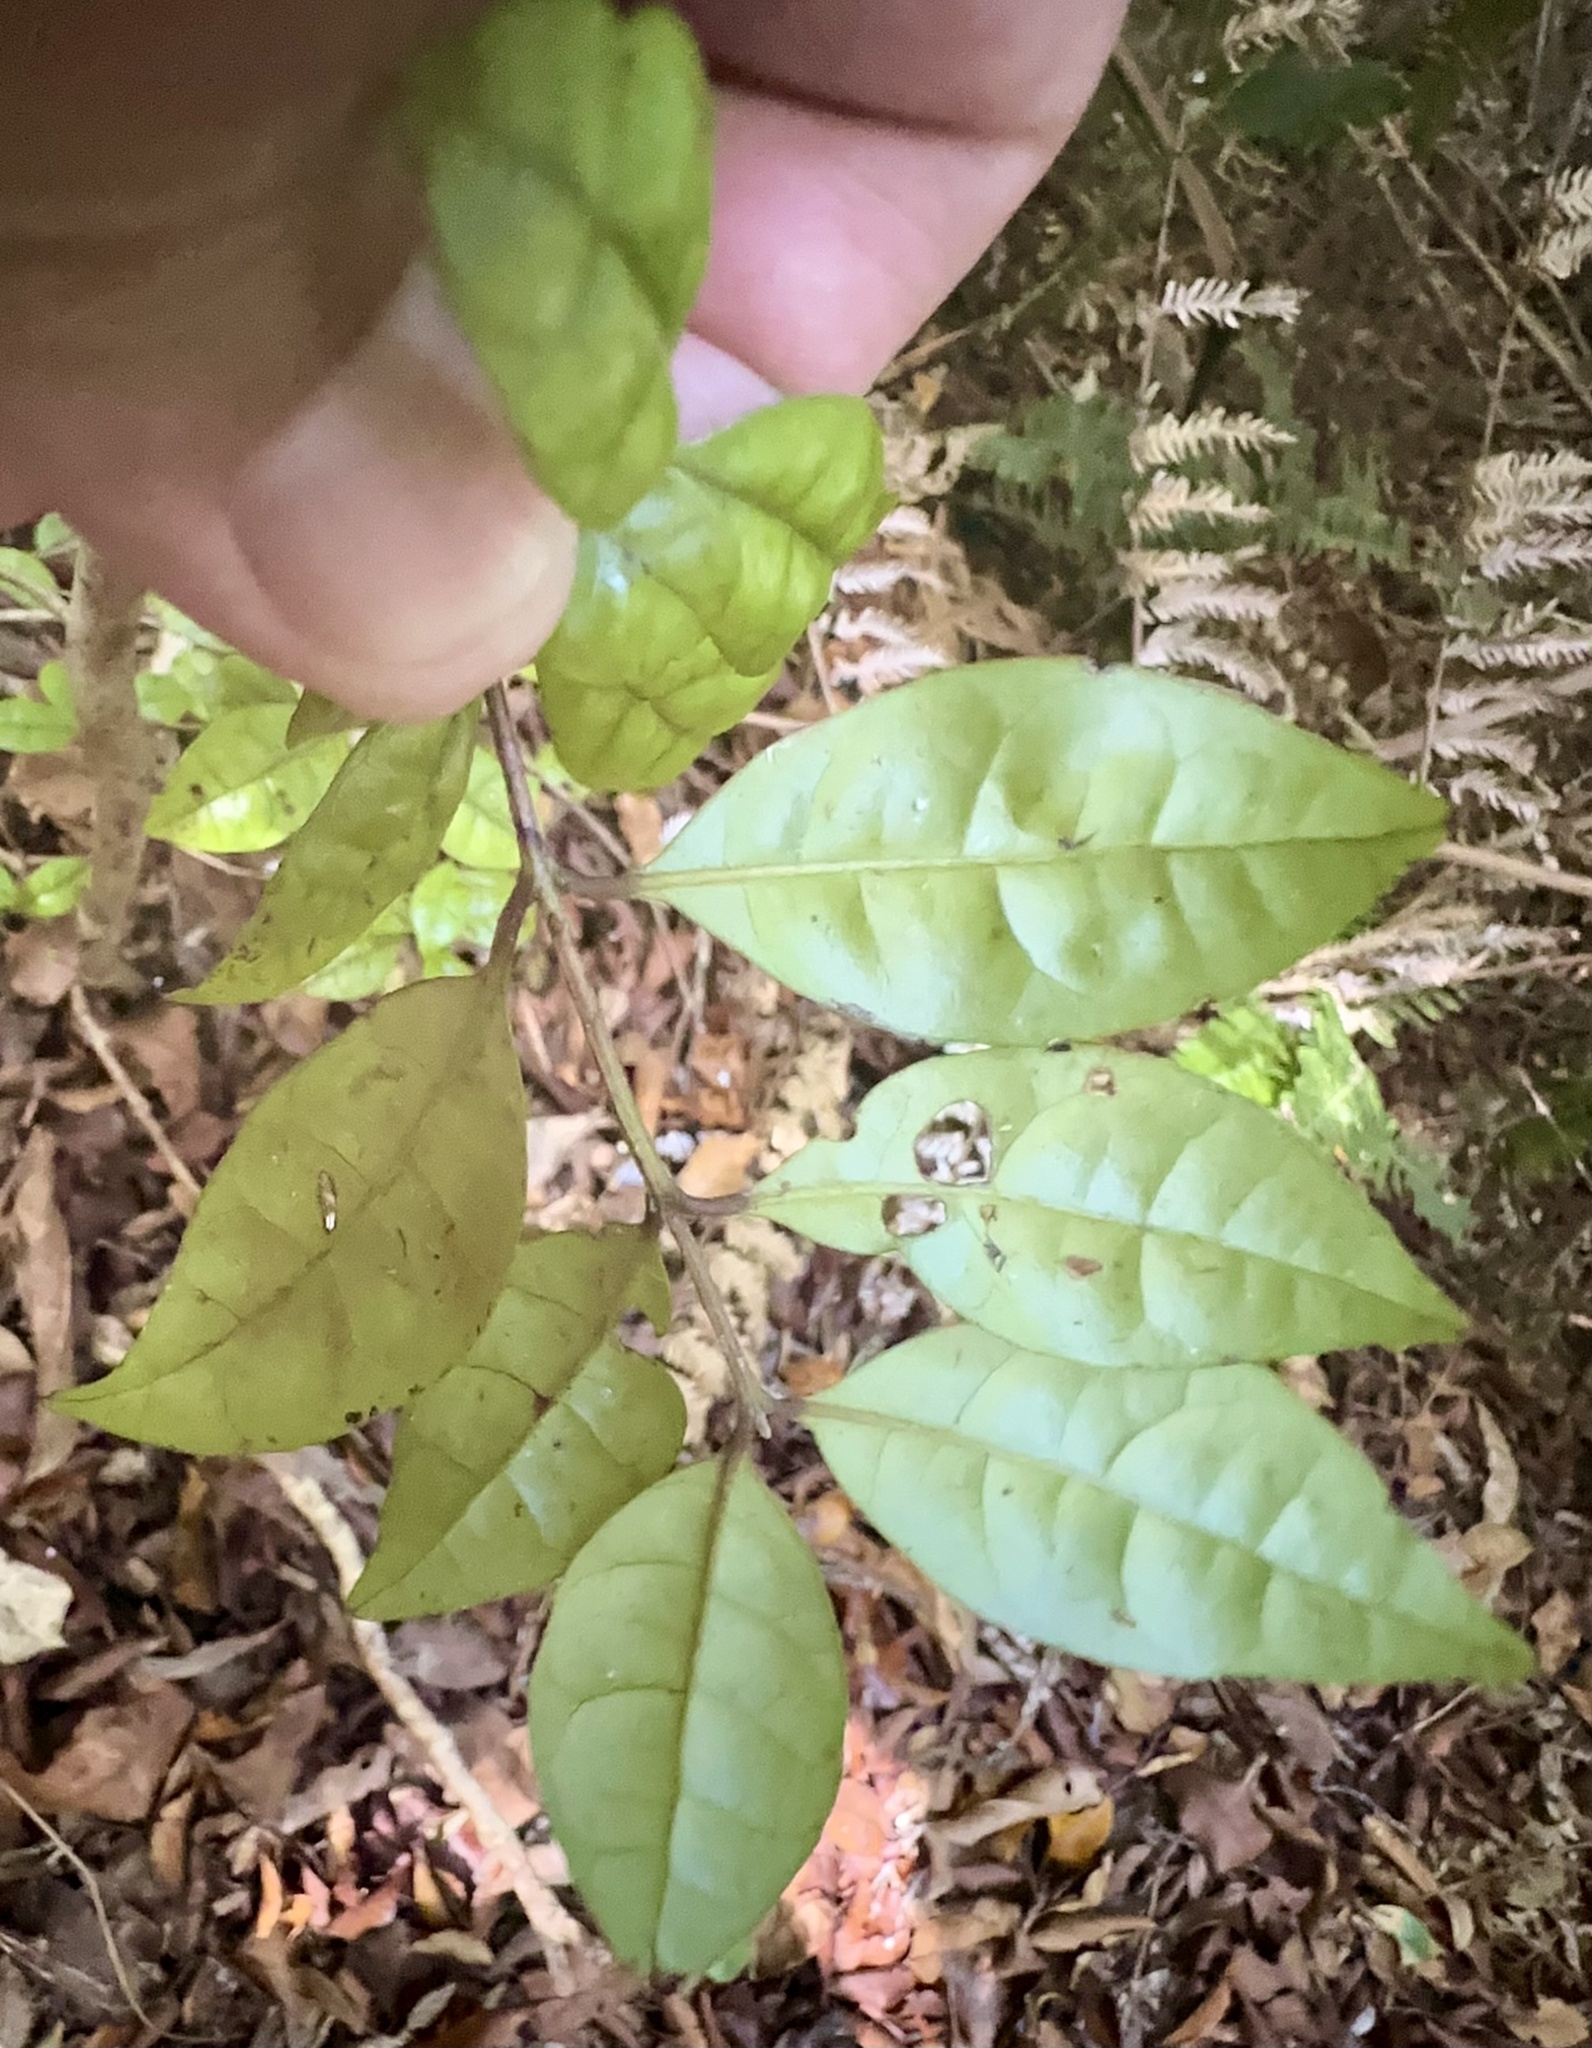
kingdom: Plantae
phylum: Tracheophyta
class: Magnoliopsida
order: Myrtales
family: Myrtaceae
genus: Lophomyrtus
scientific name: Lophomyrtus bullata
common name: Rama rama
